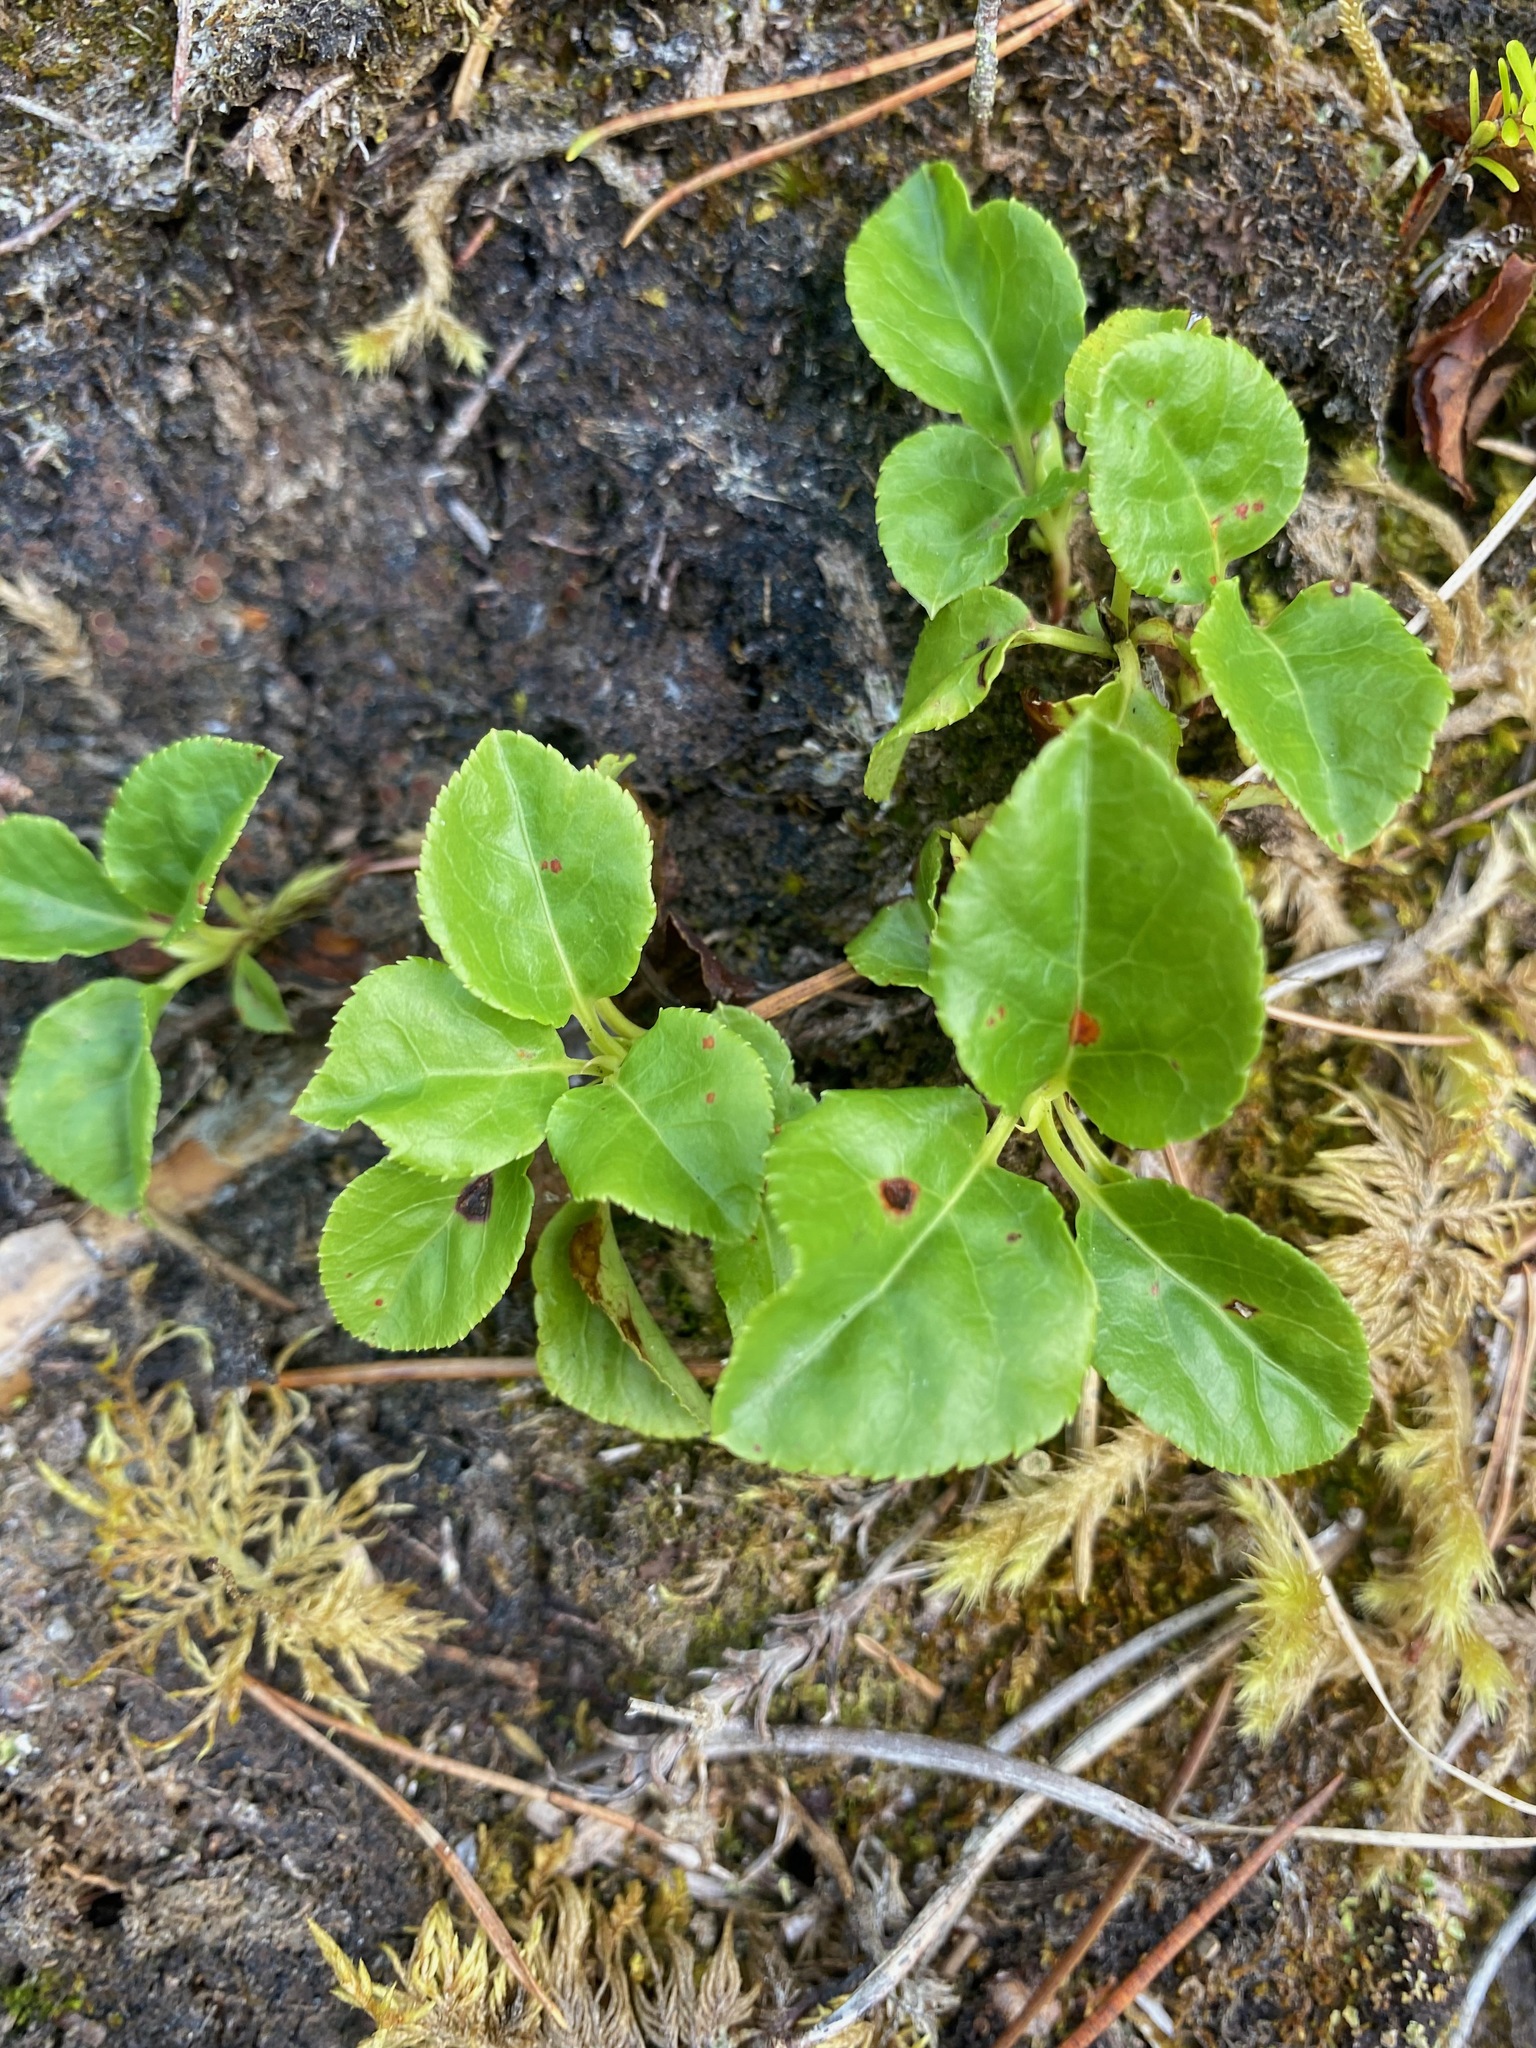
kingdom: Plantae
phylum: Tracheophyta
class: Magnoliopsida
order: Ericales
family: Ericaceae
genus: Orthilia
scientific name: Orthilia secunda
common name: One-sided orthilia
